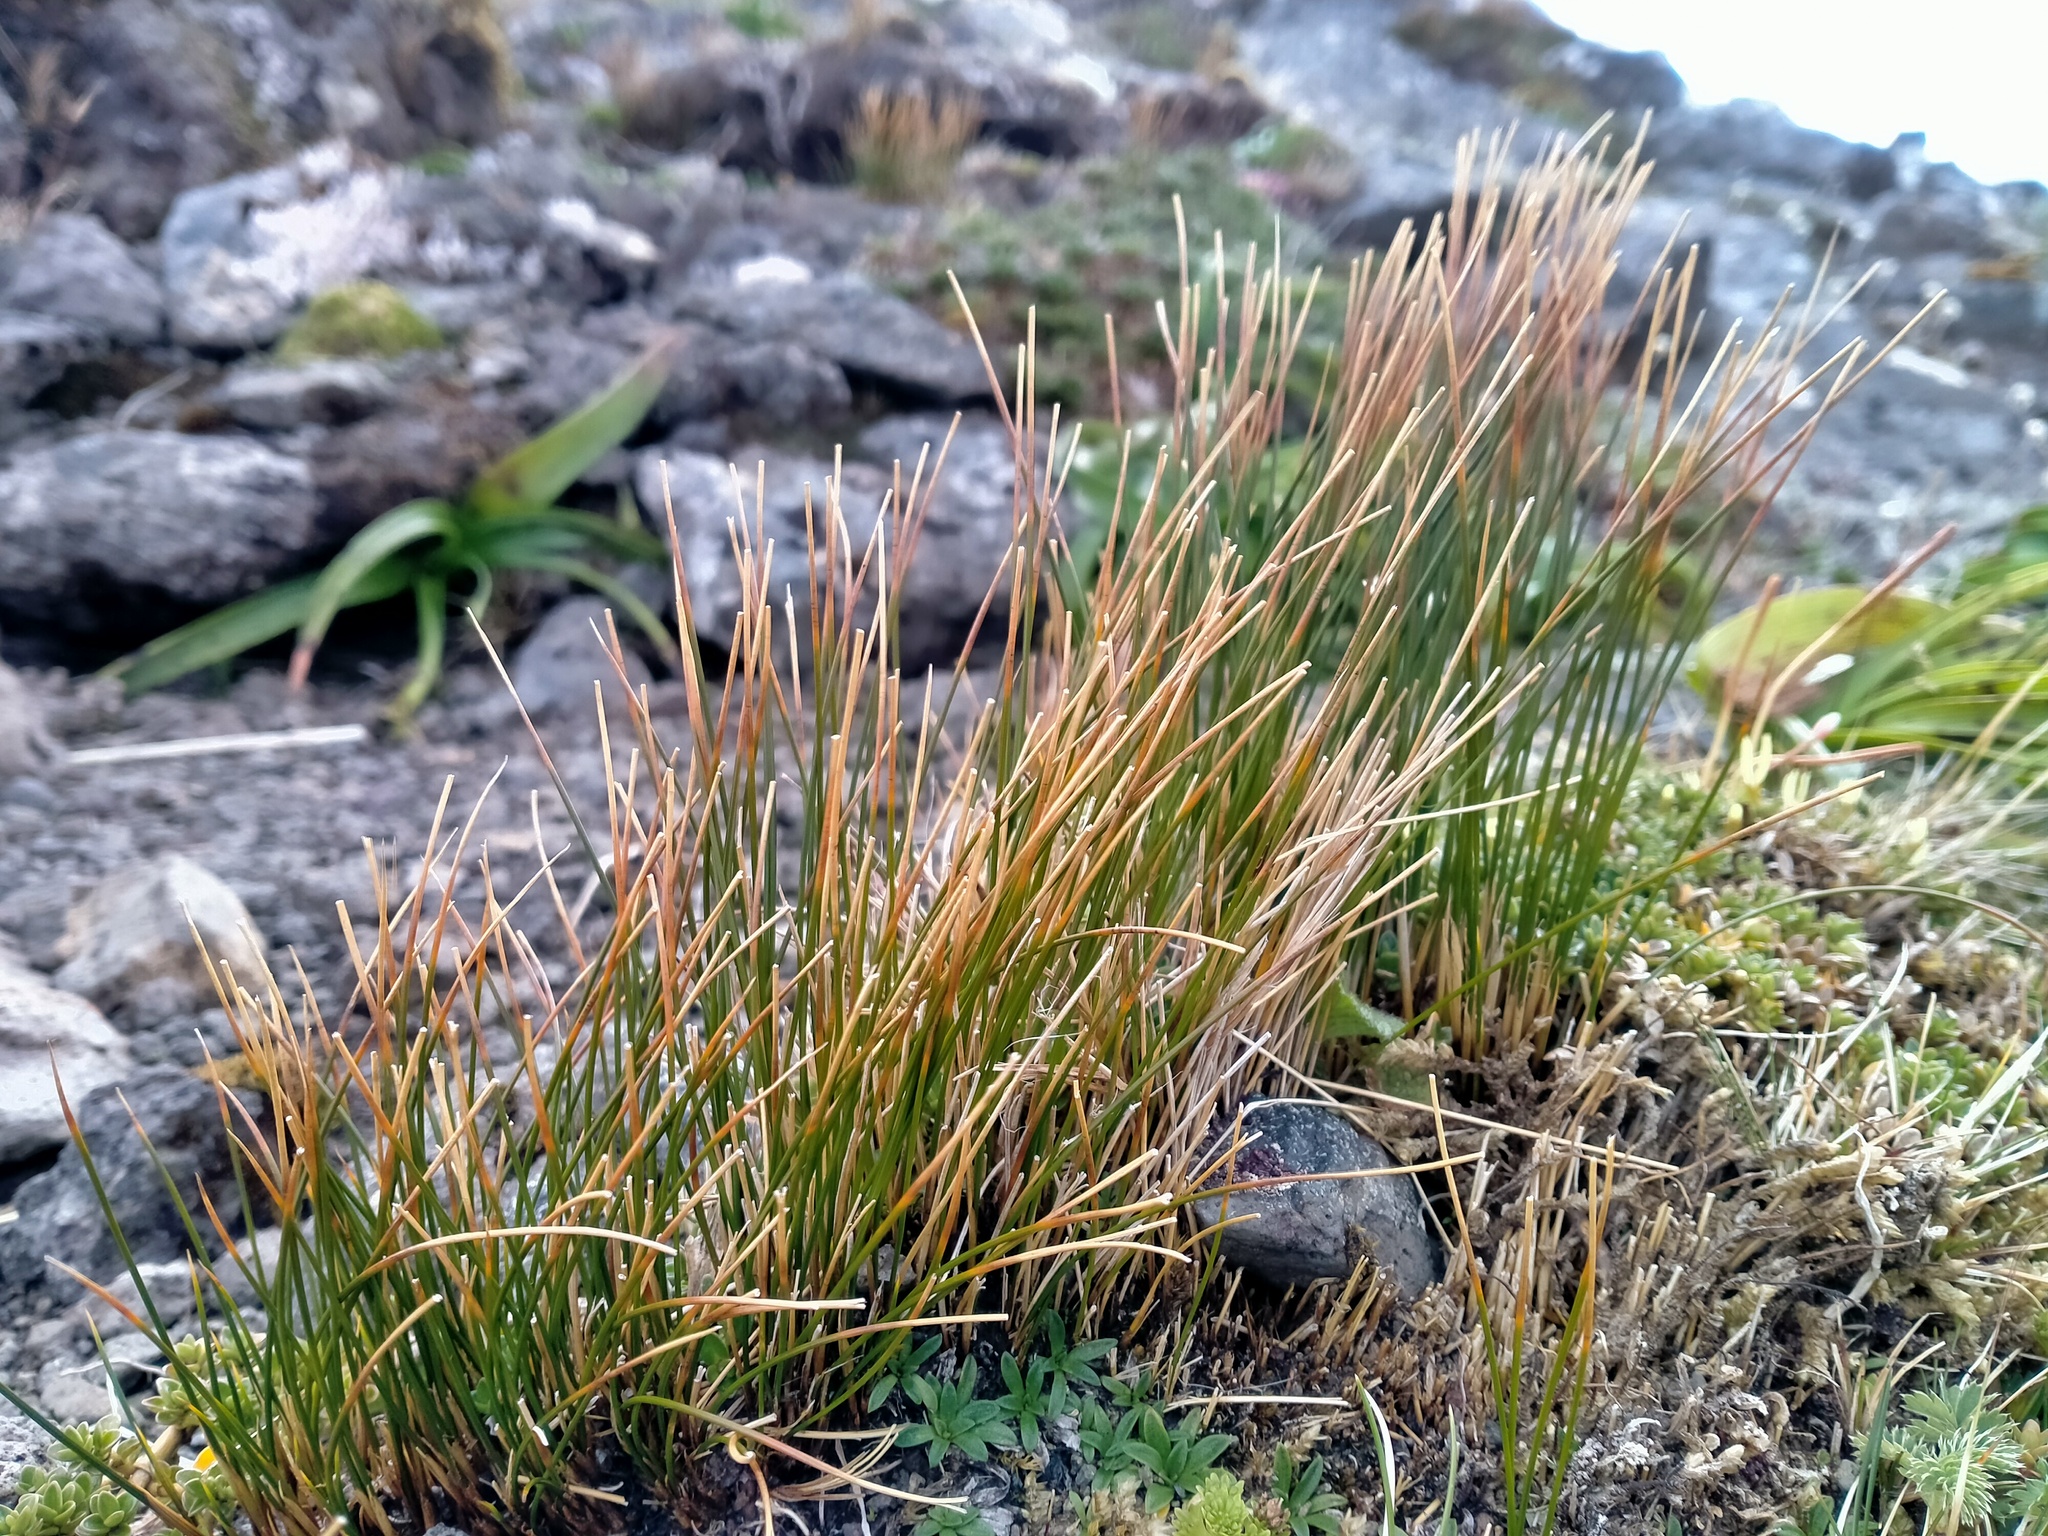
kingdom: Plantae
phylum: Tracheophyta
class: Liliopsida
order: Poales
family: Juncaceae
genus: Marsippospermum
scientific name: Marsippospermum gracile
